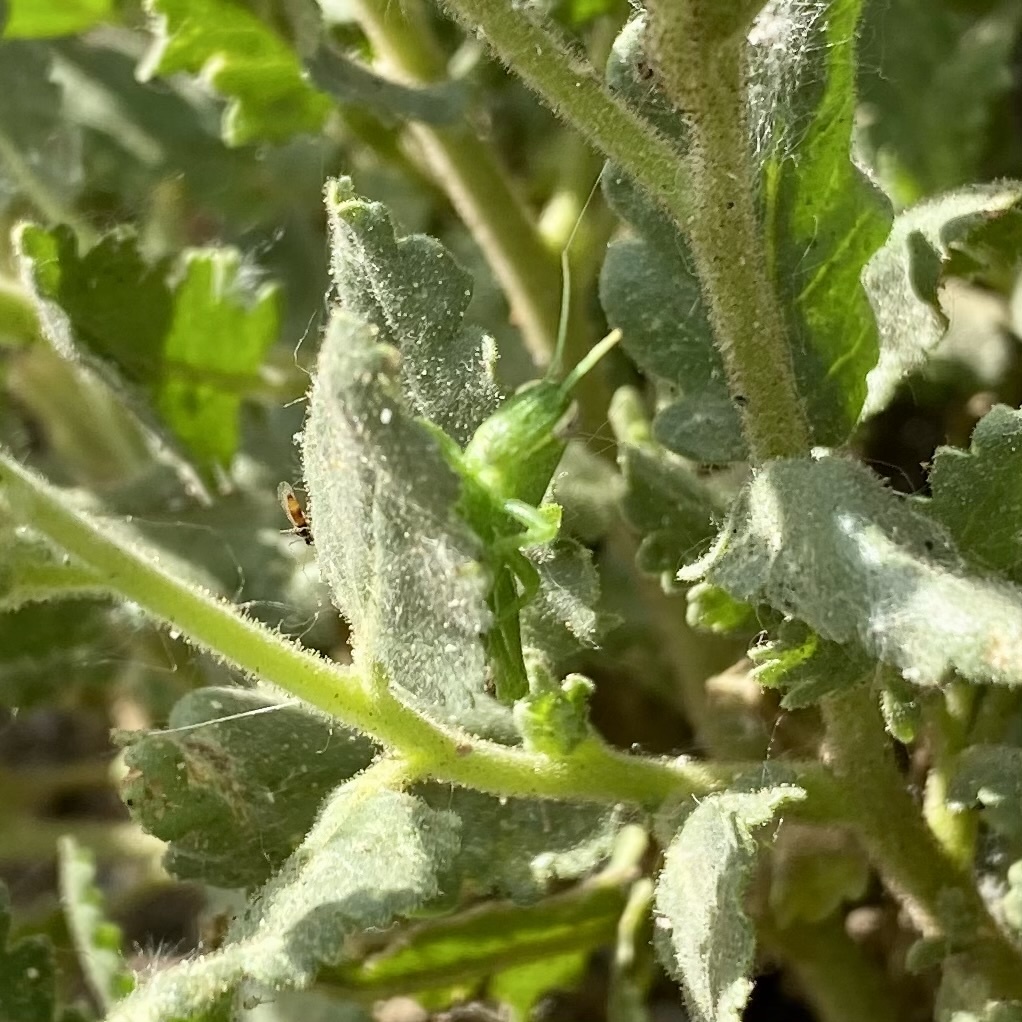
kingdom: Animalia
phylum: Arthropoda
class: Insecta
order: Orthoptera
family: Acrididae
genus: Schistocerca
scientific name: Schistocerca shoshone
